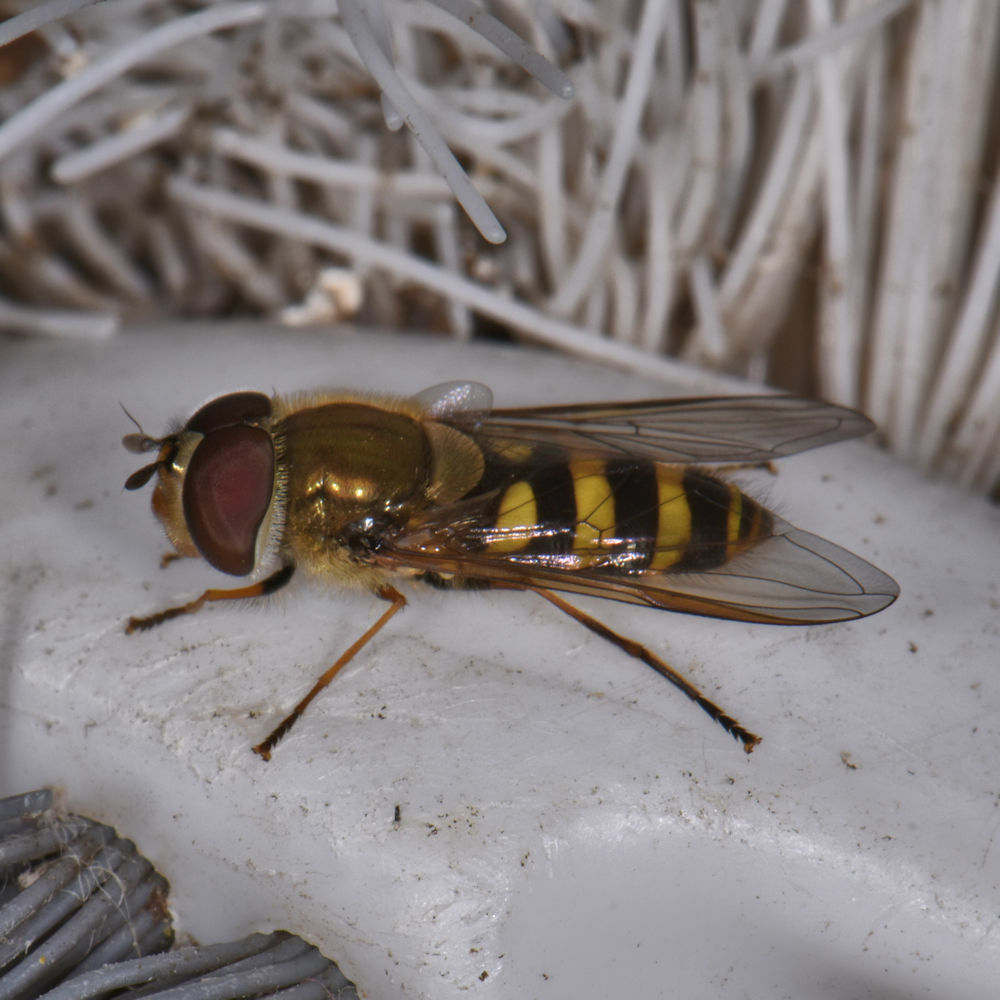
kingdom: Animalia
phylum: Arthropoda
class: Insecta
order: Diptera
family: Syrphidae
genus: Syrphus
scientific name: Syrphus torvus
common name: Hairy-eyed flower fly
